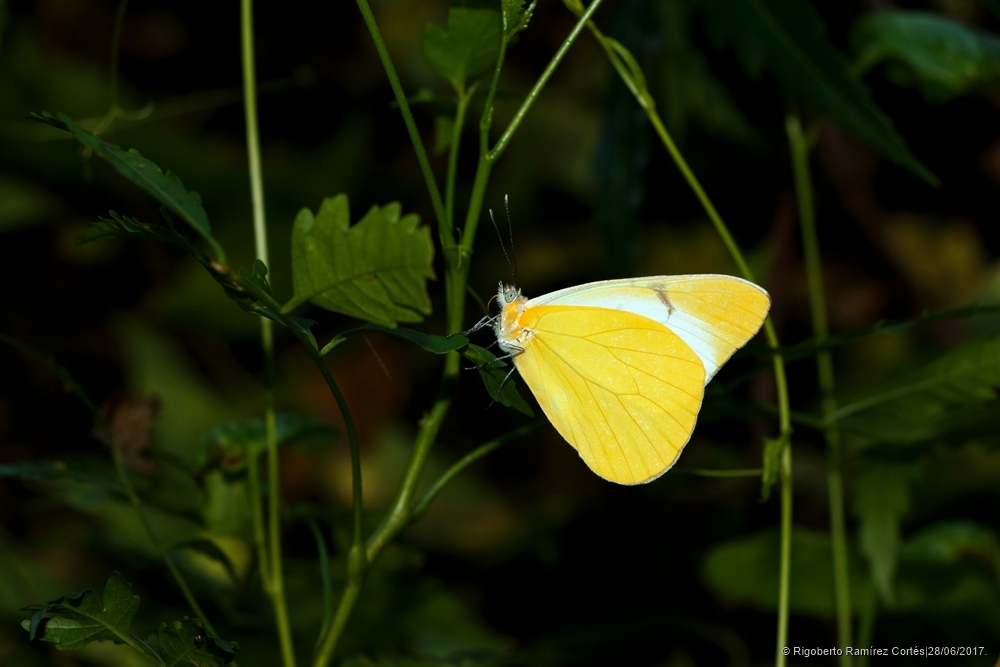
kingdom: Animalia
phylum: Arthropoda
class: Insecta
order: Lepidoptera
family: Pieridae
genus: Melete
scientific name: Melete lycimnia
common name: Common melwhite
